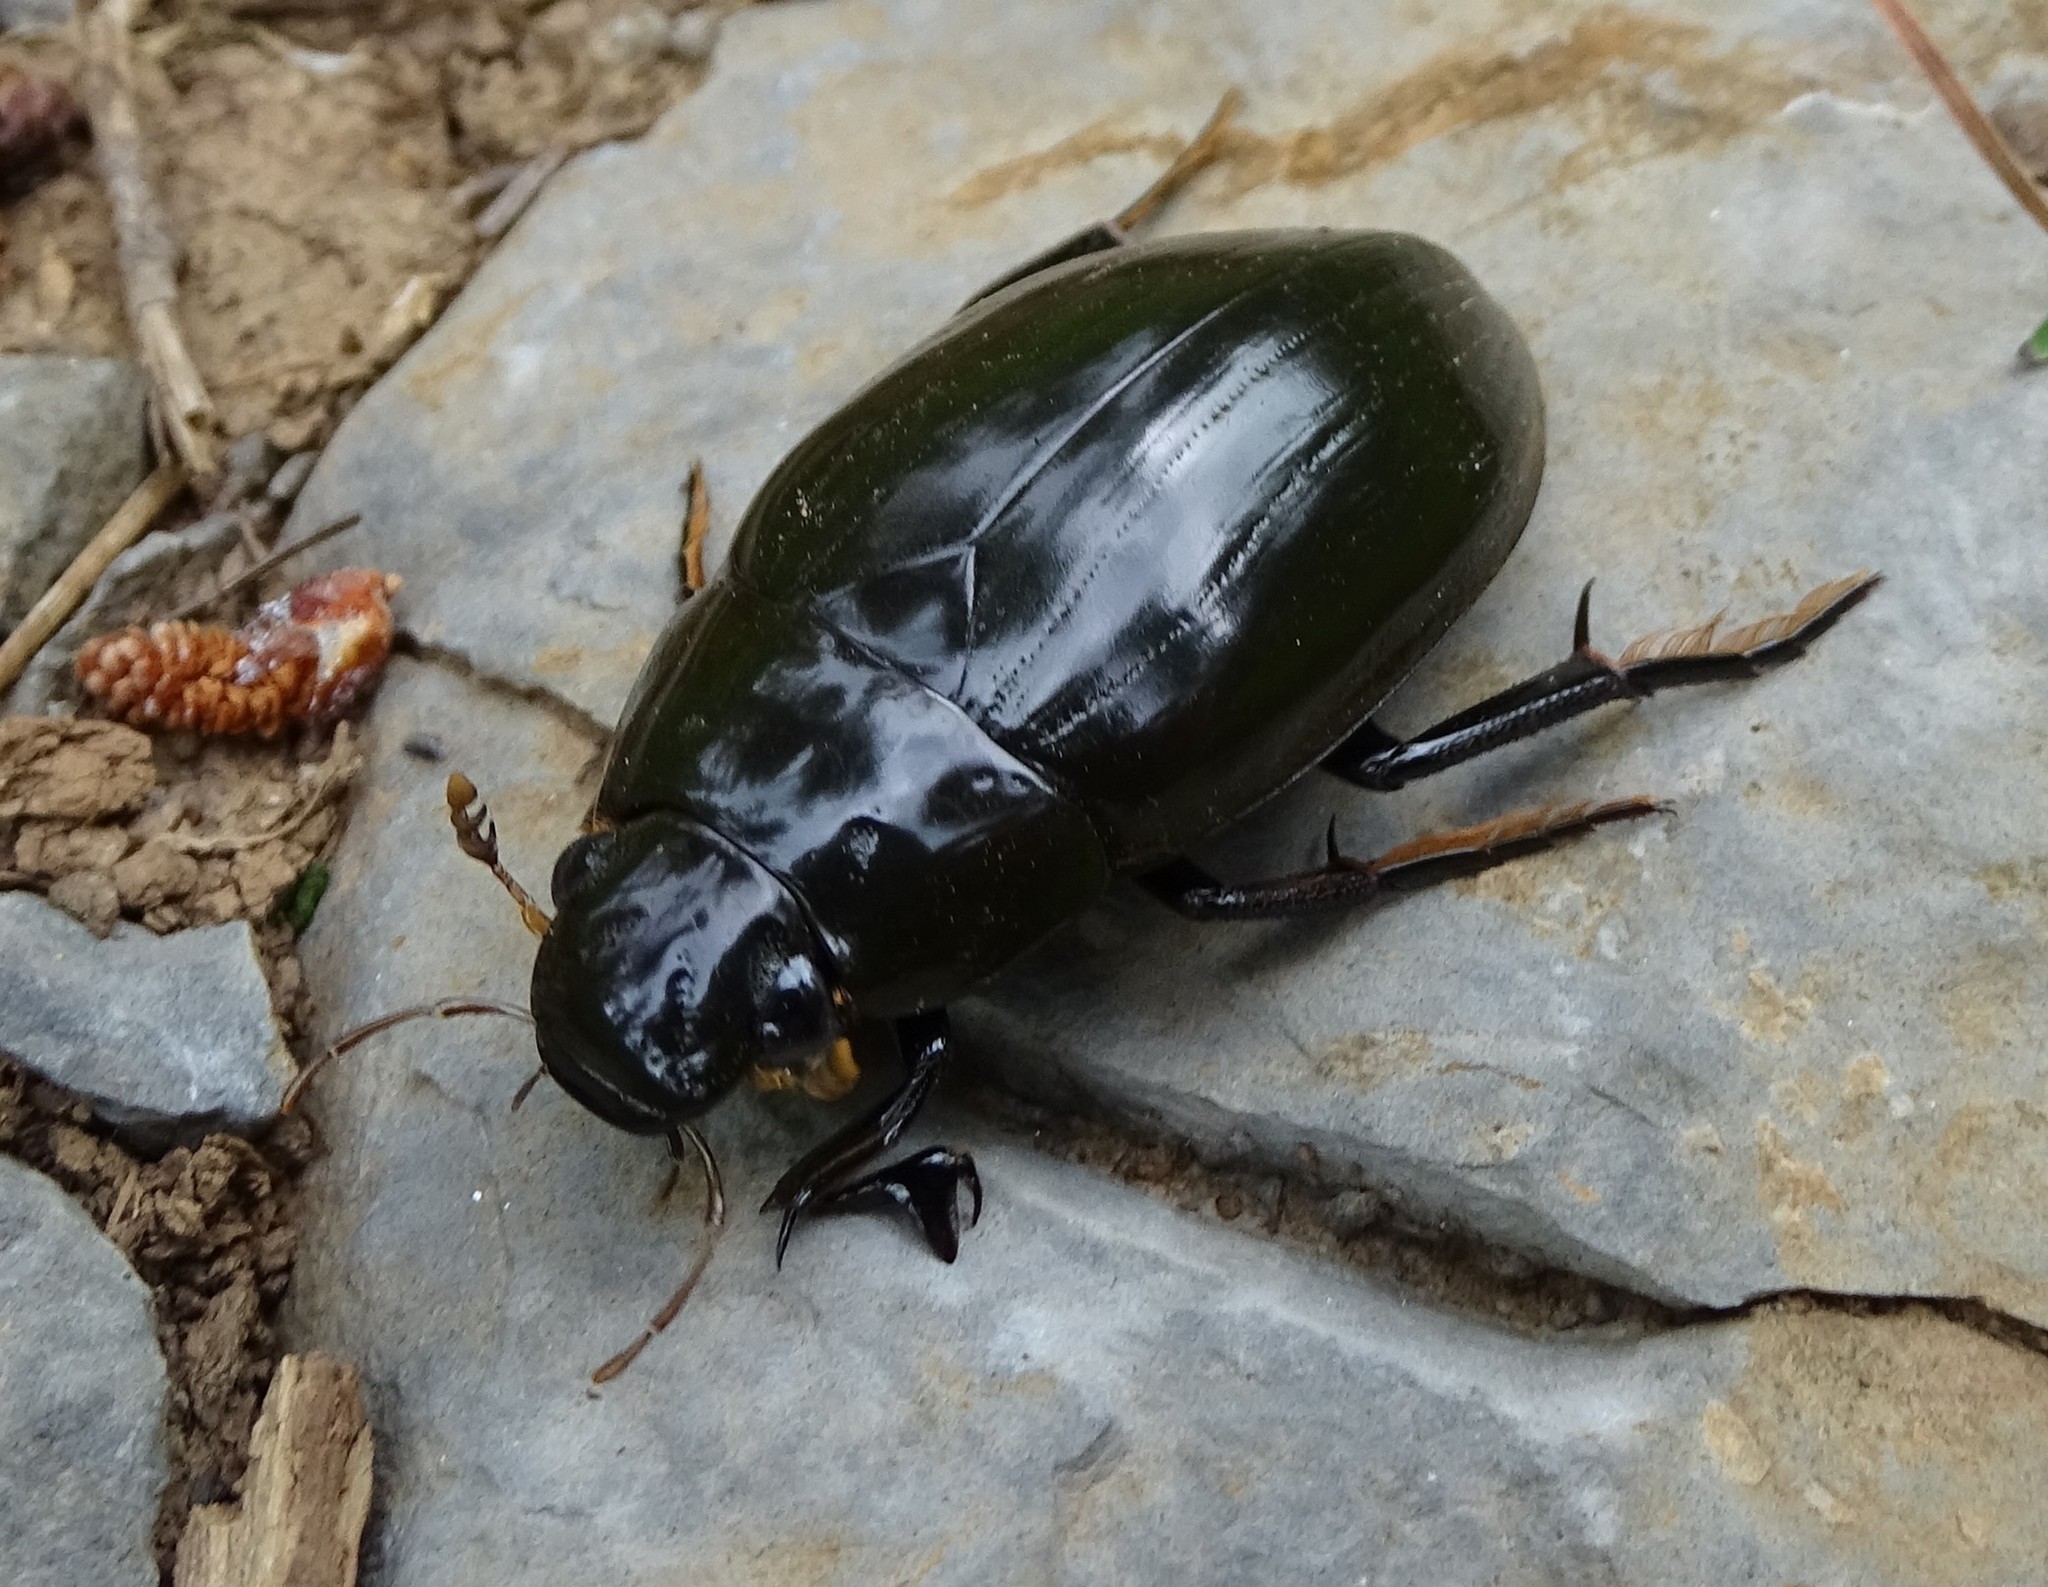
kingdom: Animalia
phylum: Arthropoda
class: Insecta
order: Coleoptera
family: Hydrophilidae
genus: Hydrophilus
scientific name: Hydrophilus pistaceus
